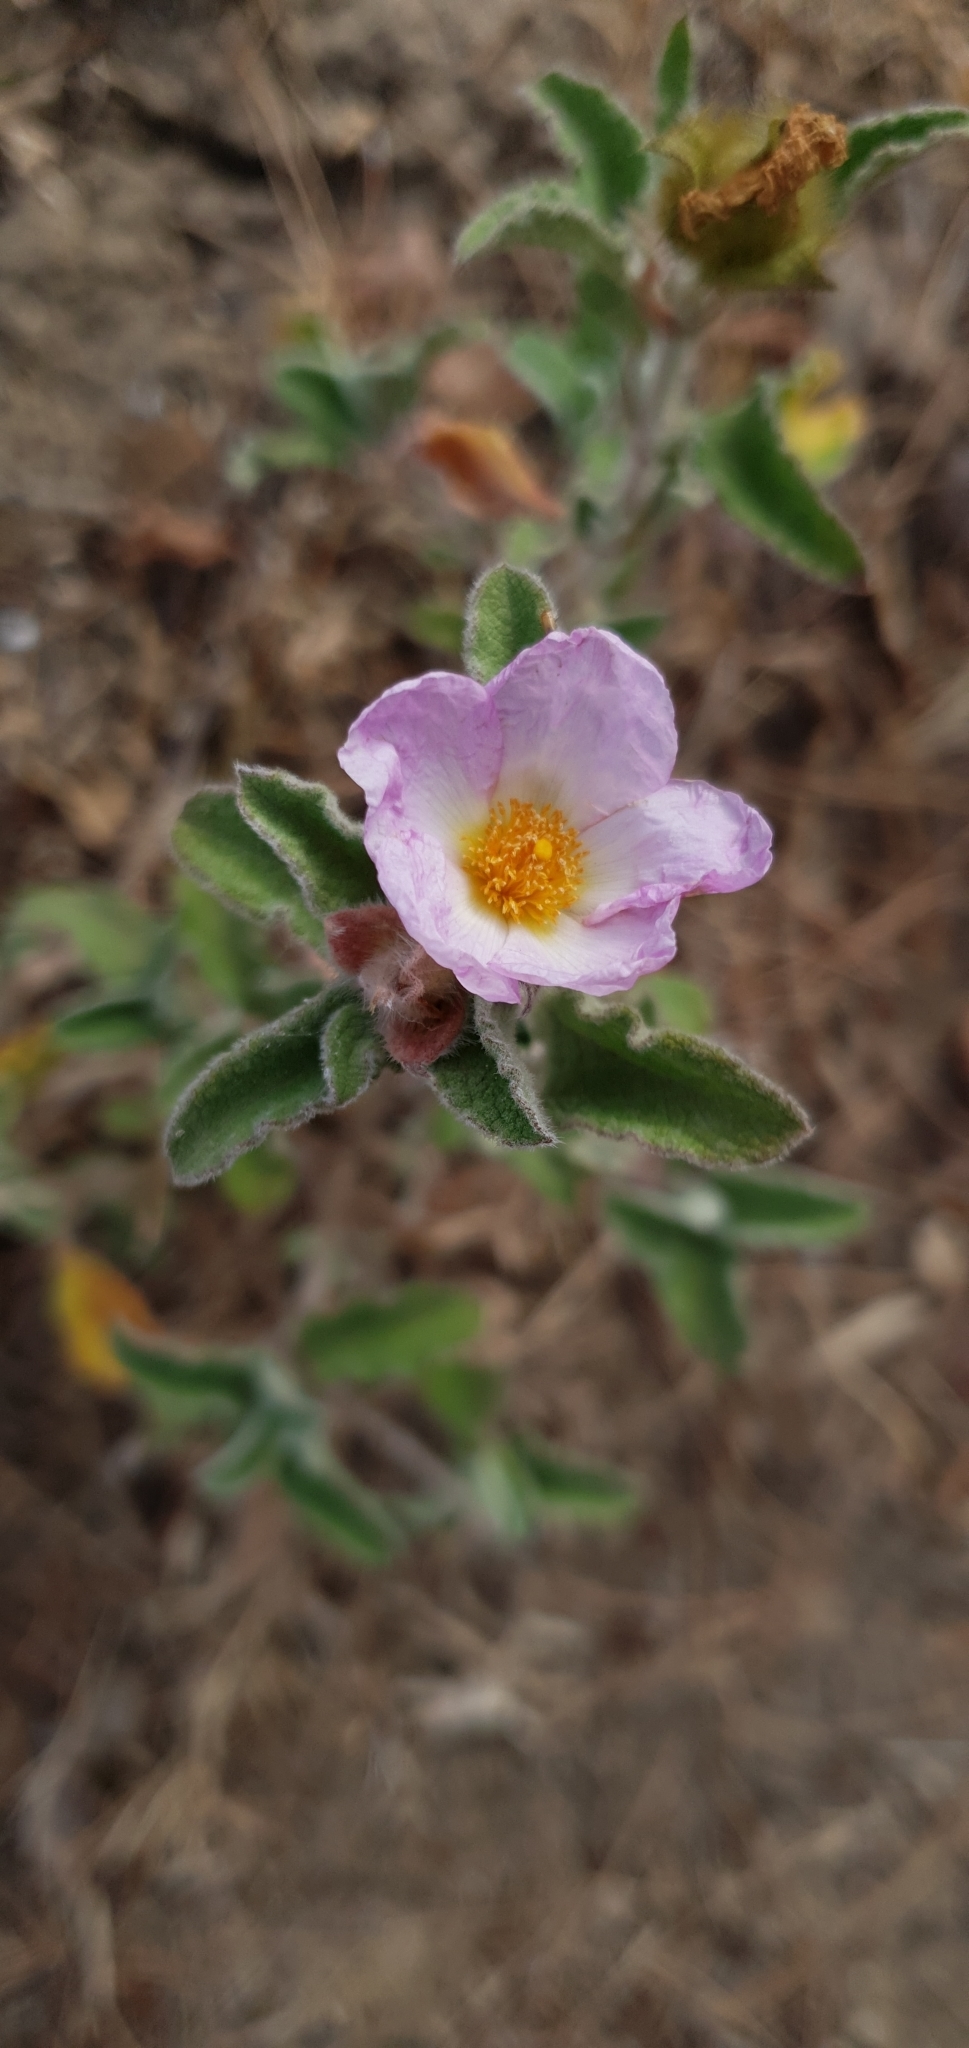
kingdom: Plantae
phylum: Tracheophyta
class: Magnoliopsida
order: Malvales
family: Cistaceae
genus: Cistus
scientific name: Cistus creticus
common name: Cretan rockrose
